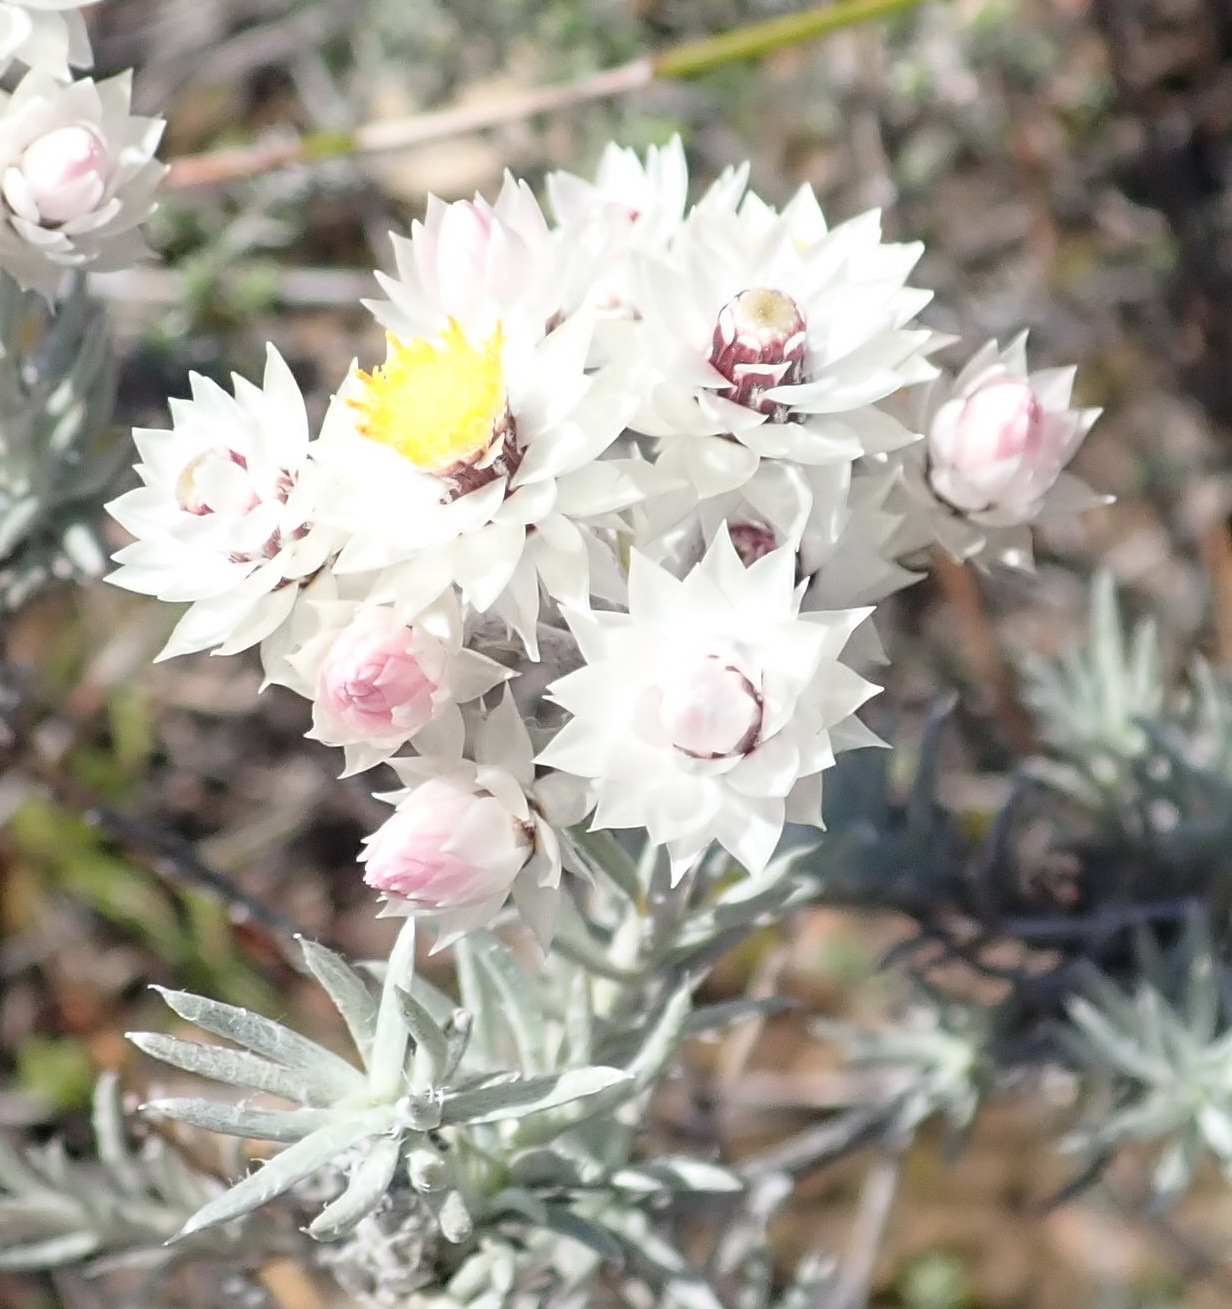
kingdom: Plantae
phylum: Tracheophyta
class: Magnoliopsida
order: Asterales
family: Asteraceae
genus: Achyranthemum
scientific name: Achyranthemum paniculatum
